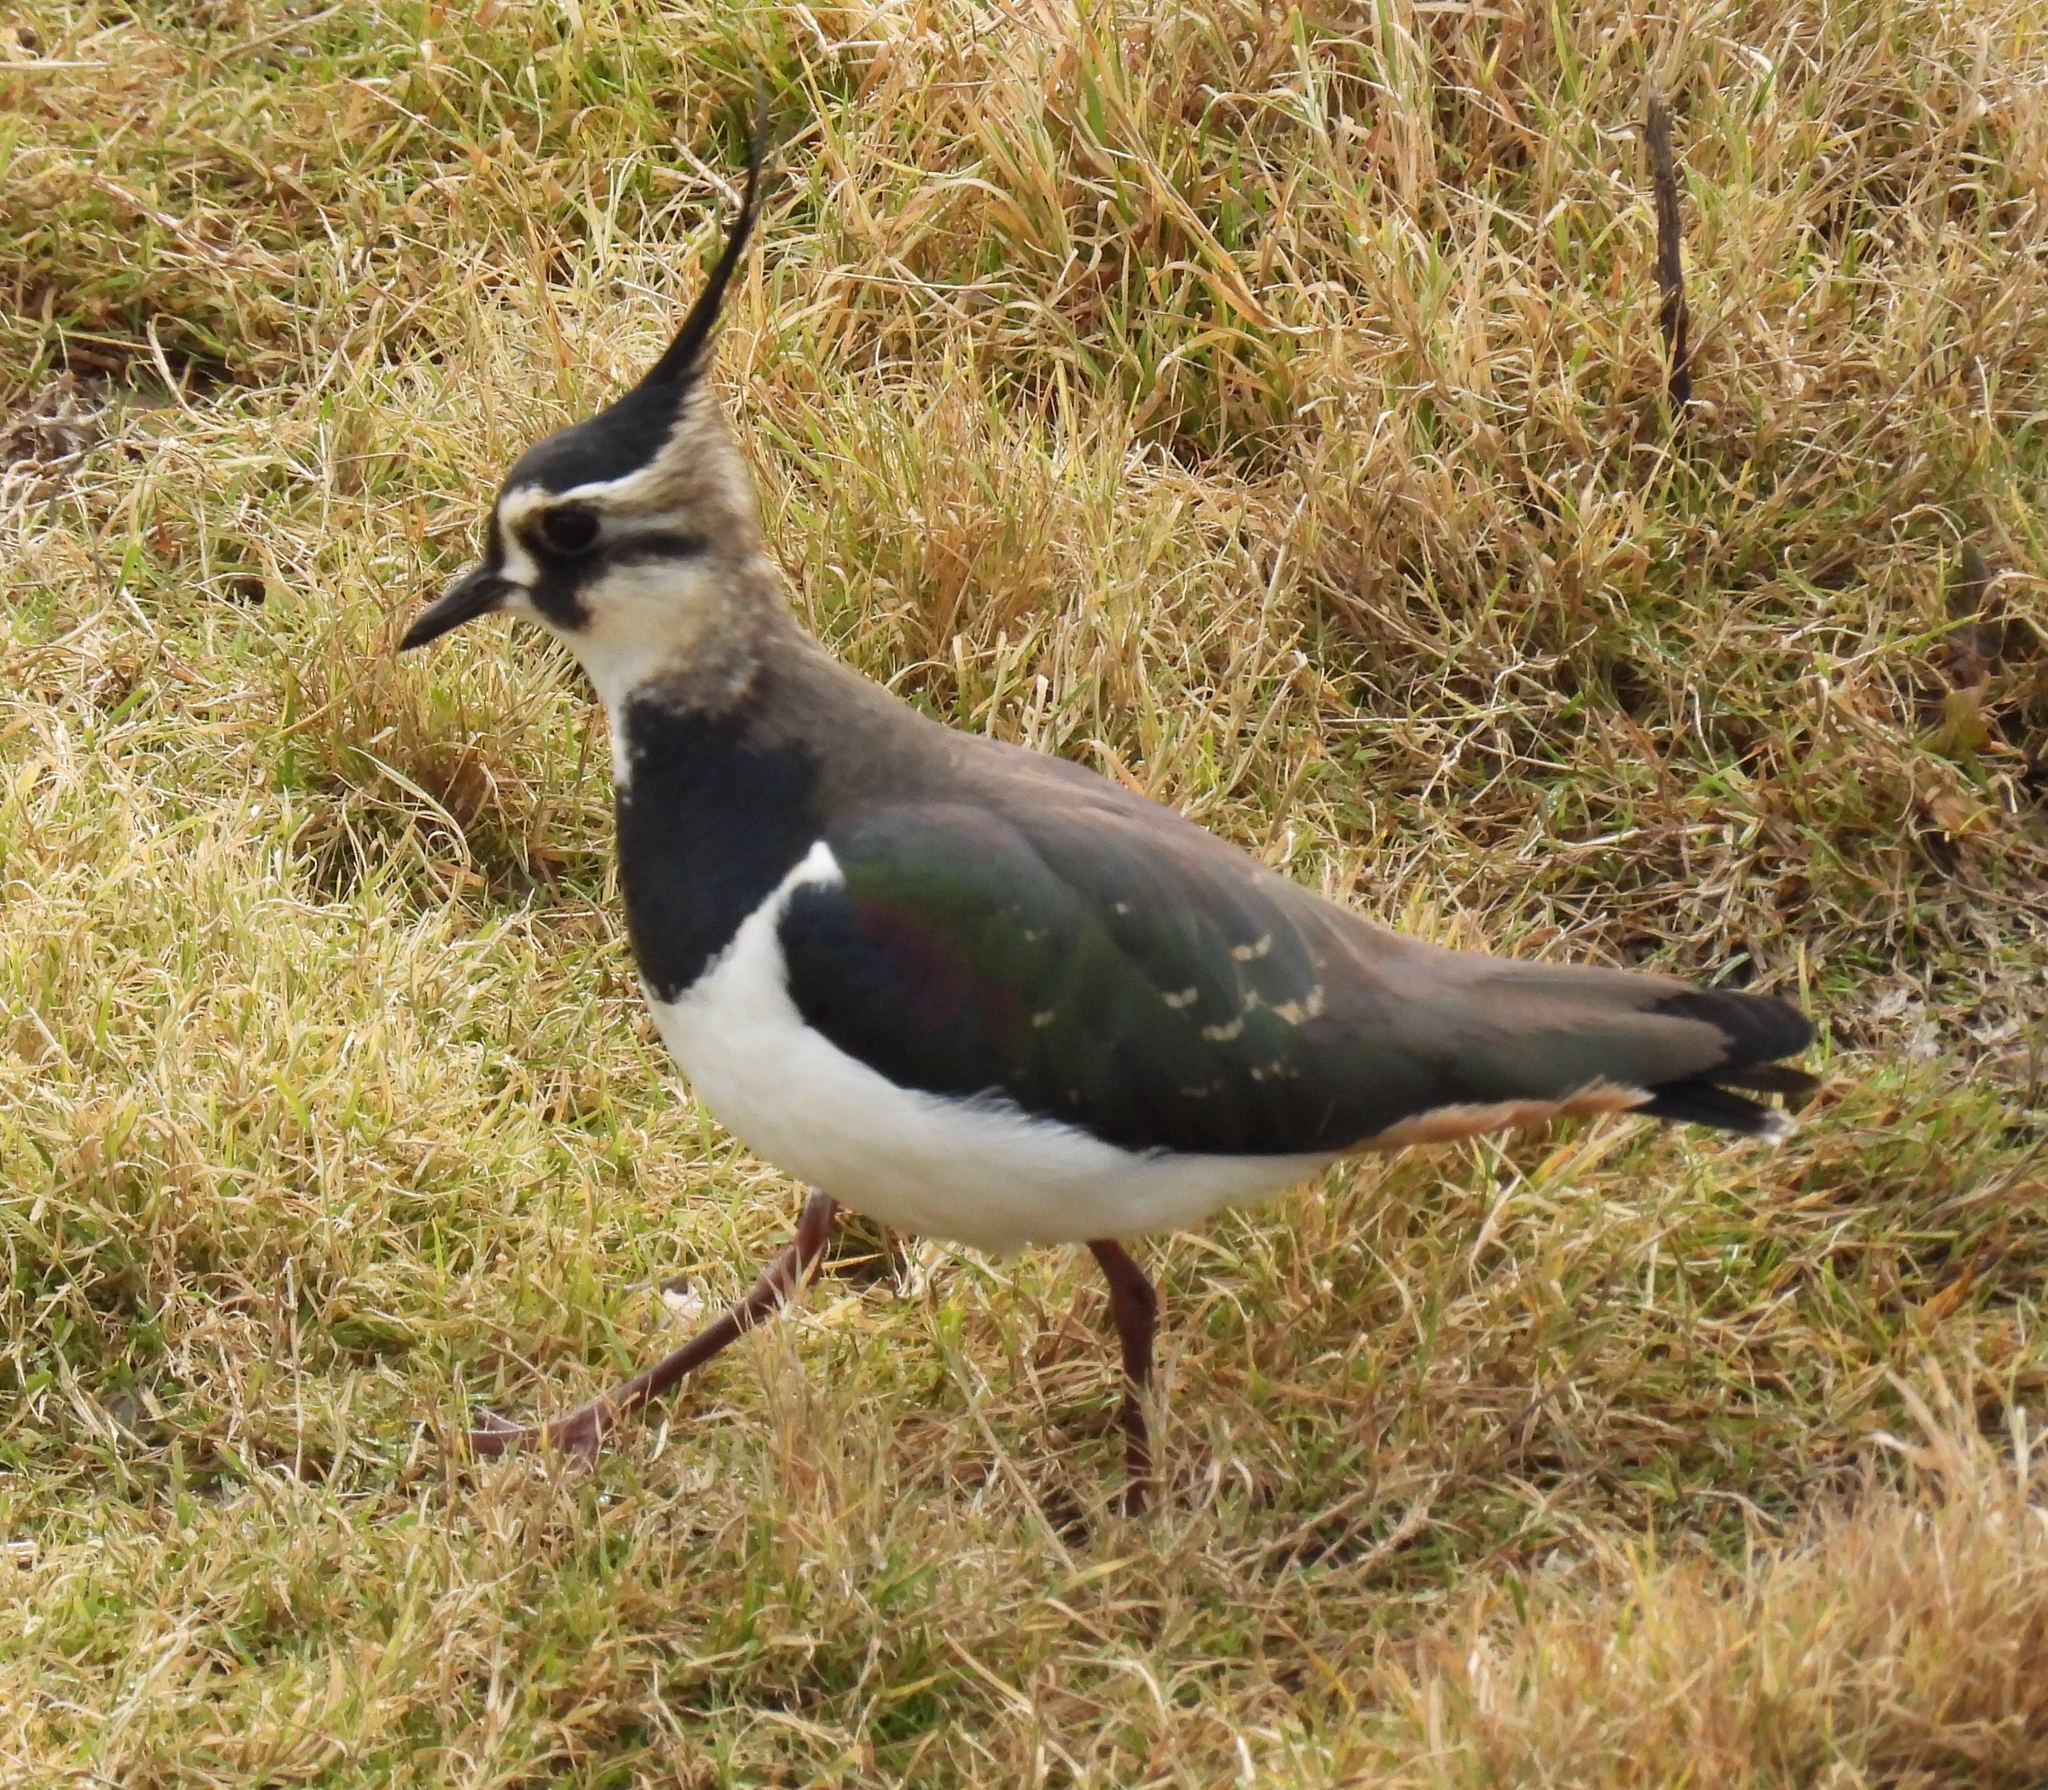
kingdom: Animalia
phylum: Chordata
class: Aves
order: Charadriiformes
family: Charadriidae
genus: Vanellus
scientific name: Vanellus vanellus
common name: Northern lapwing
